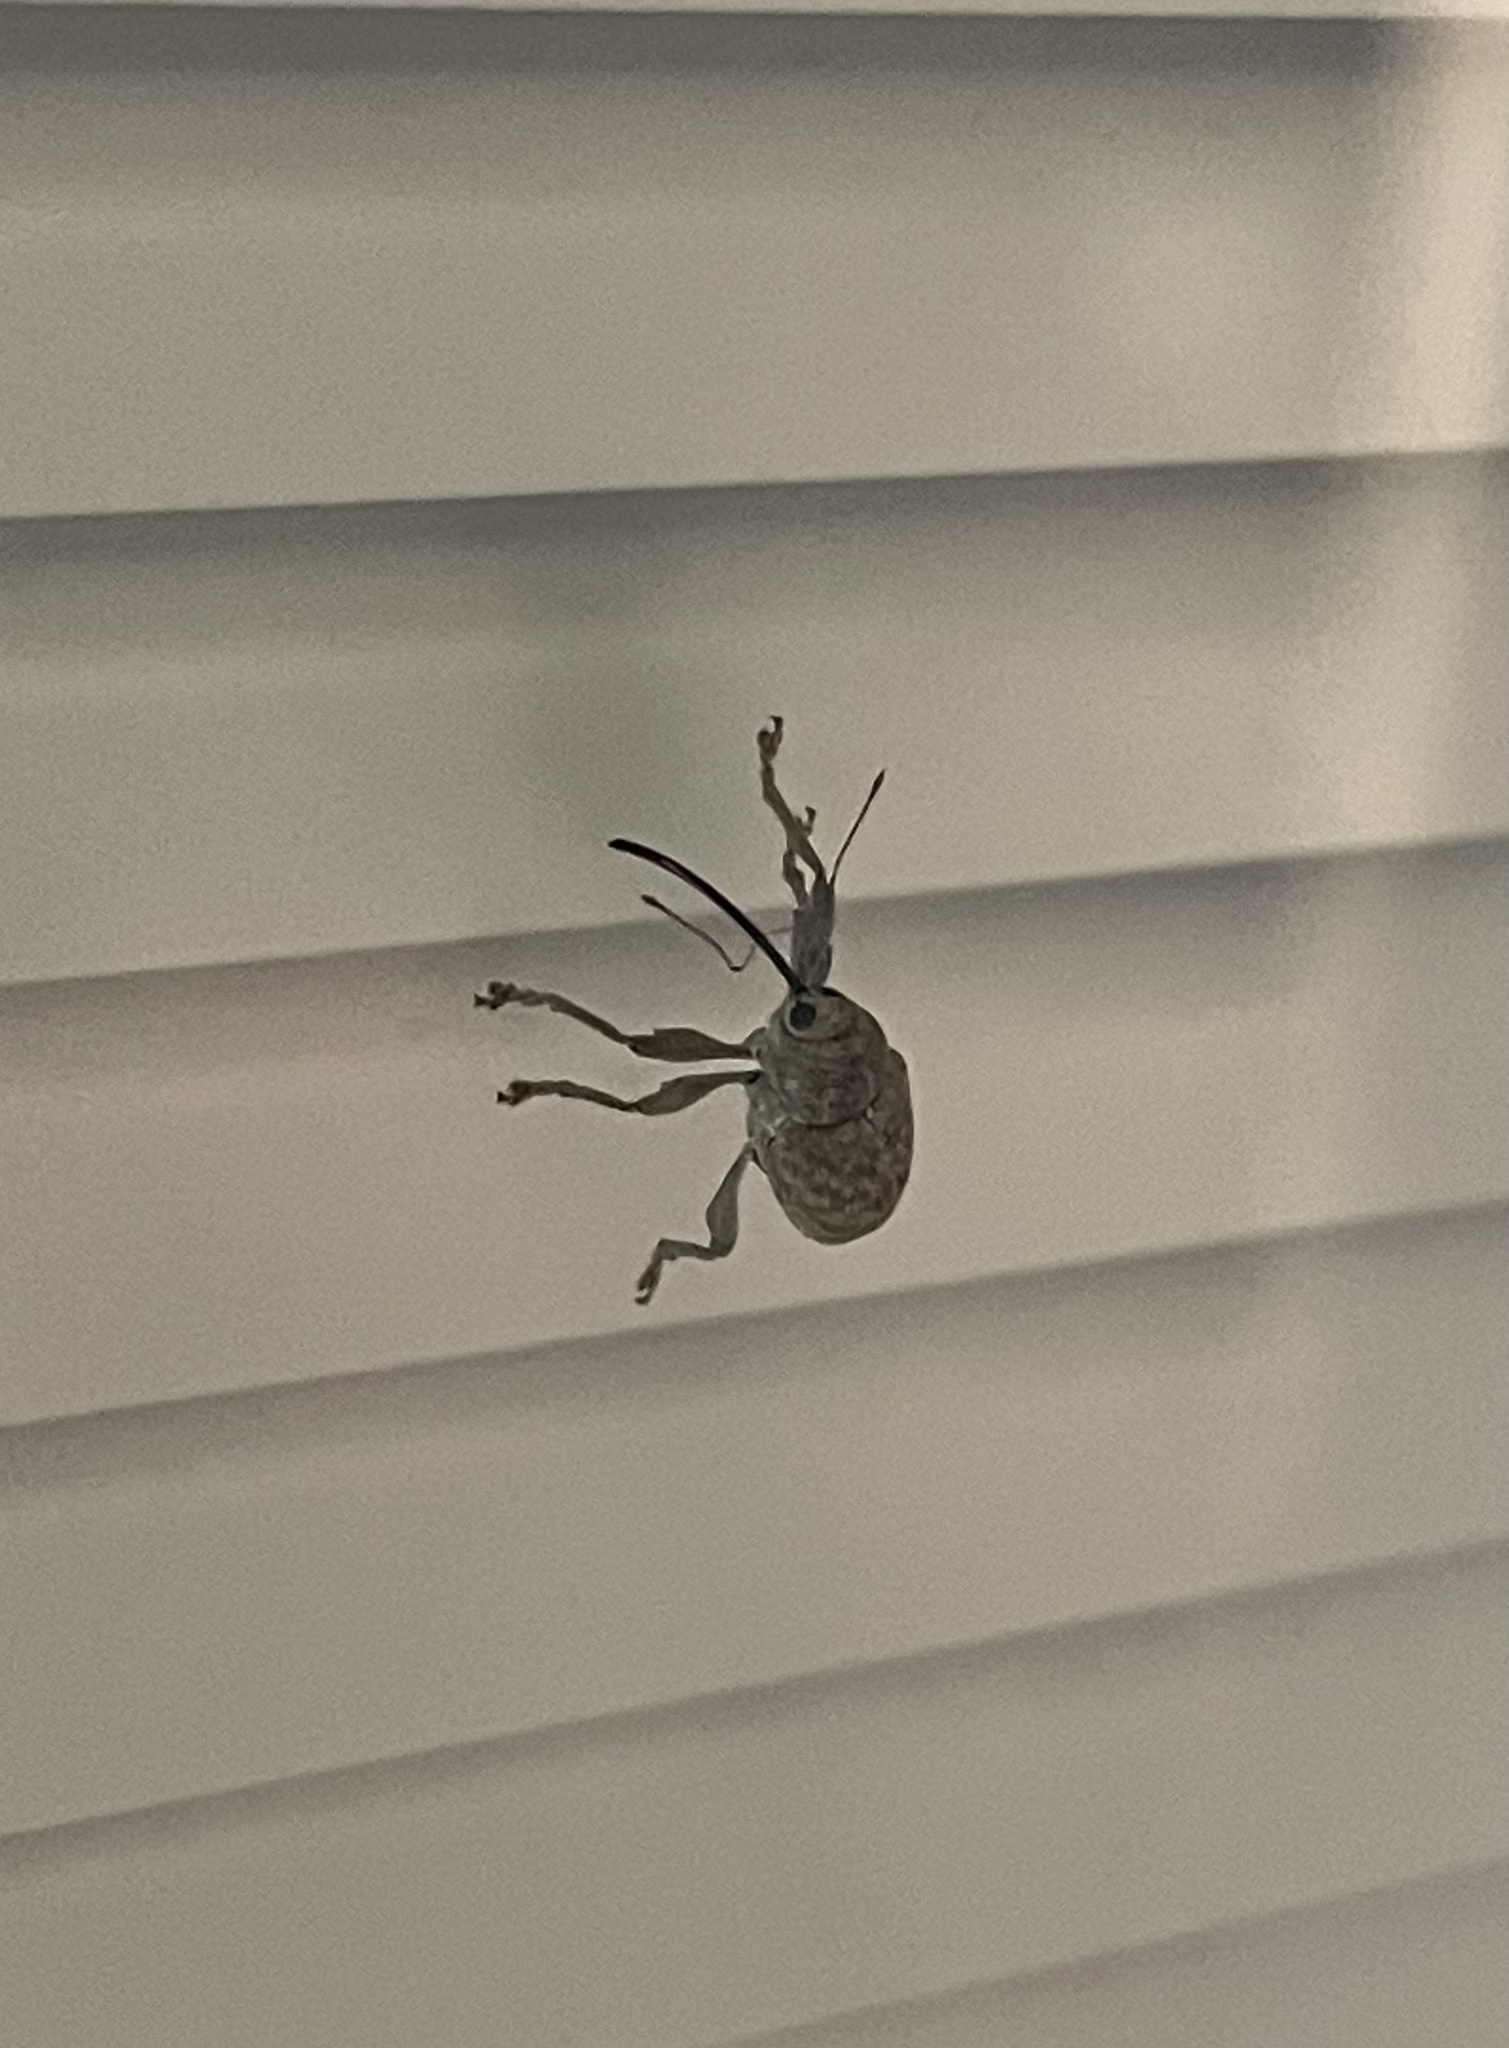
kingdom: Animalia
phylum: Arthropoda
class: Insecta
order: Coleoptera
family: Curculionidae
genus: Curculio
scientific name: Curculio
